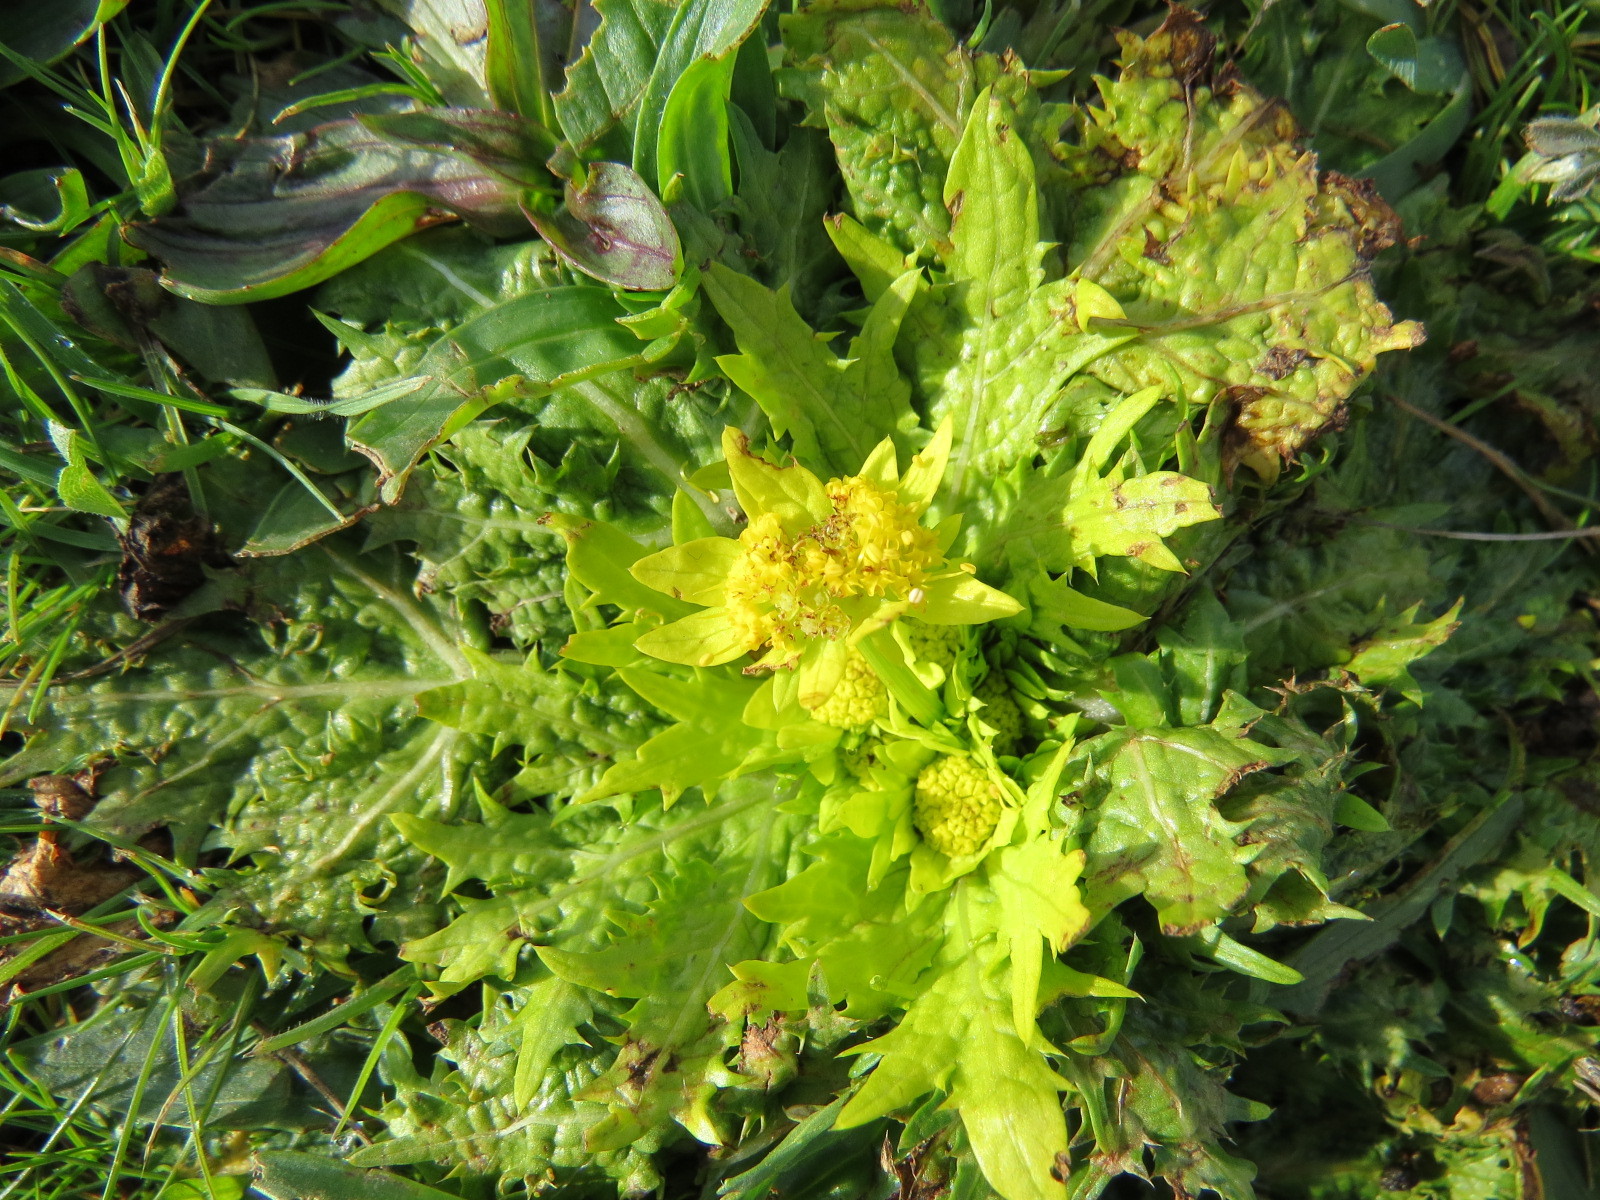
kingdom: Plantae
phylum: Tracheophyta
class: Magnoliopsida
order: Apiales
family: Apiaceae
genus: Sanicula
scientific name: Sanicula arctopoides
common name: Footsteps-of-spring
